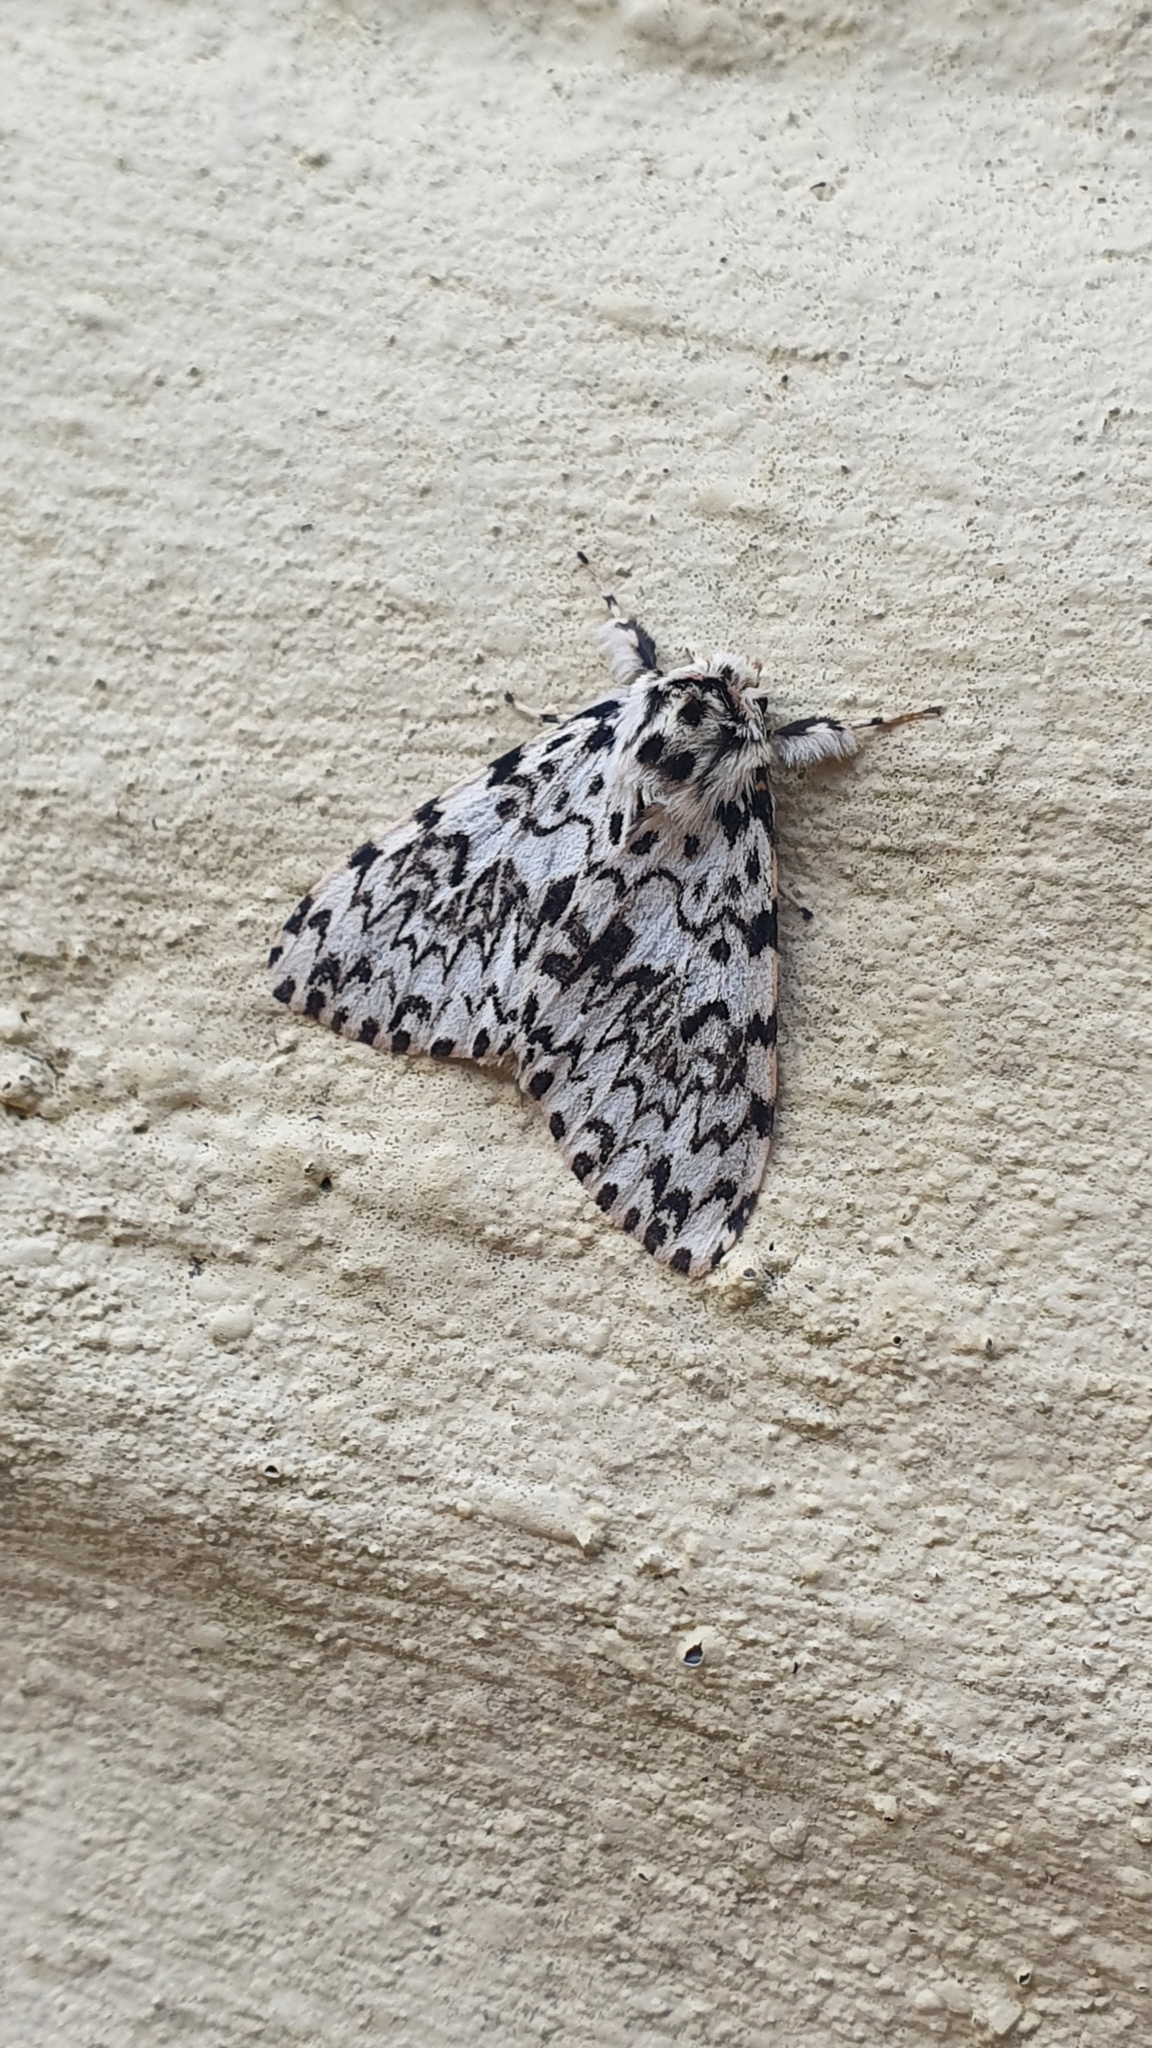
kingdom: Animalia
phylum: Arthropoda
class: Insecta
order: Lepidoptera
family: Erebidae
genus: Lymantria
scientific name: Lymantria monacha
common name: Black arches
